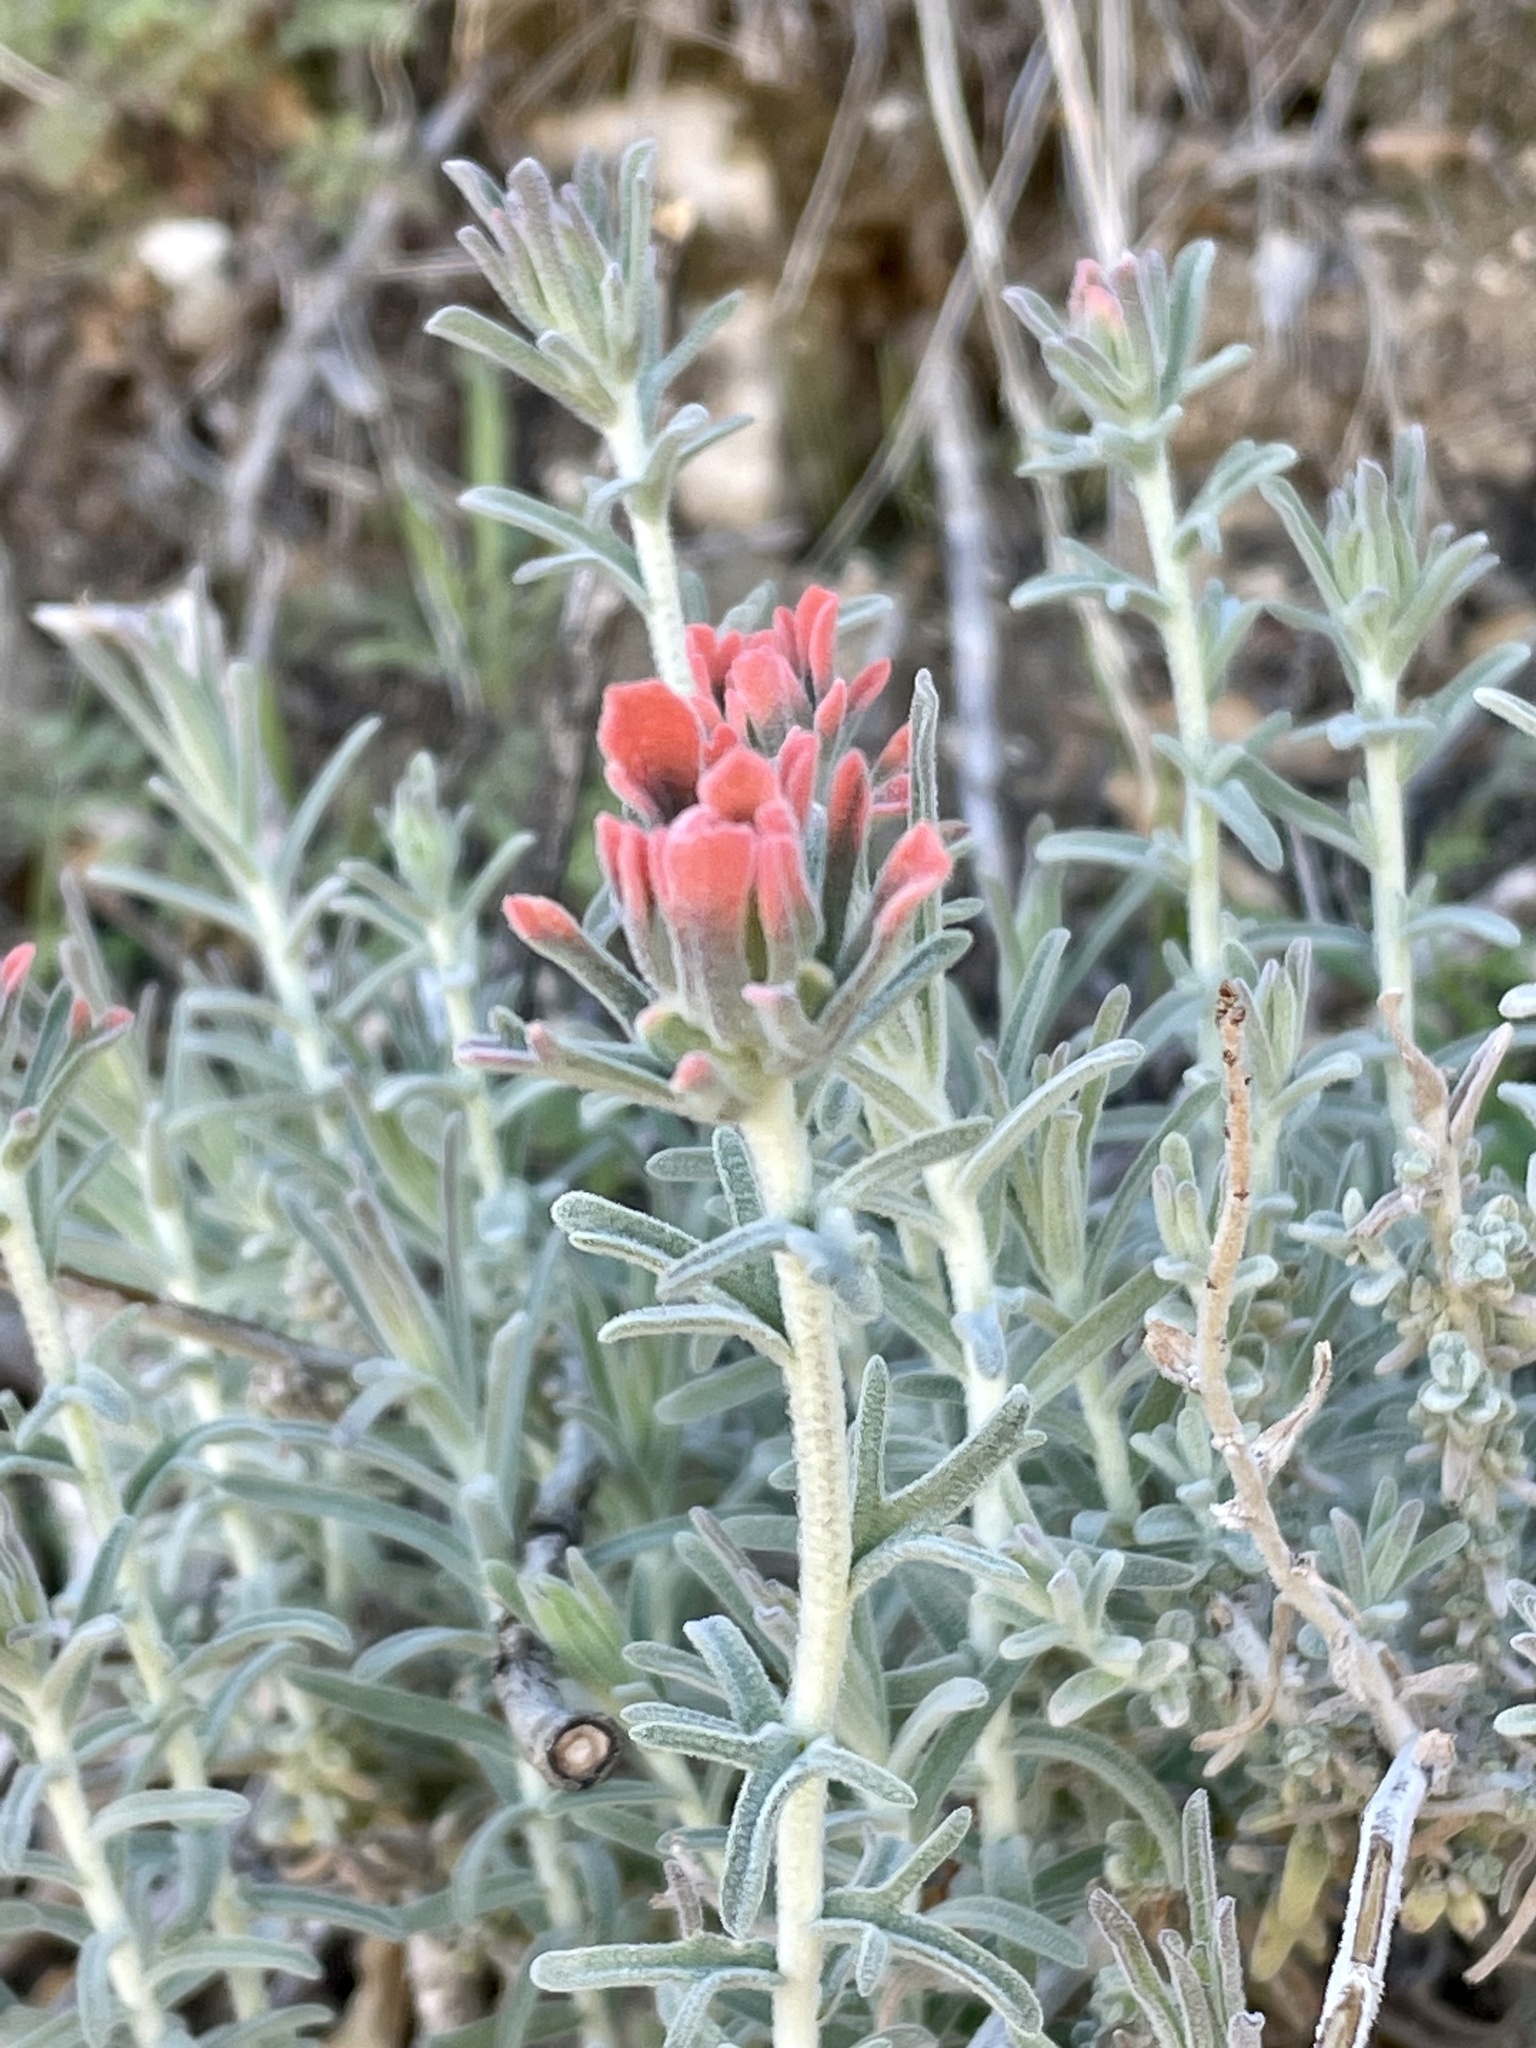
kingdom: Plantae
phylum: Tracheophyta
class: Magnoliopsida
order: Lamiales
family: Orobanchaceae
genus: Castilleja
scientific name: Castilleja foliolosa
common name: Woolly indian paintbrush
